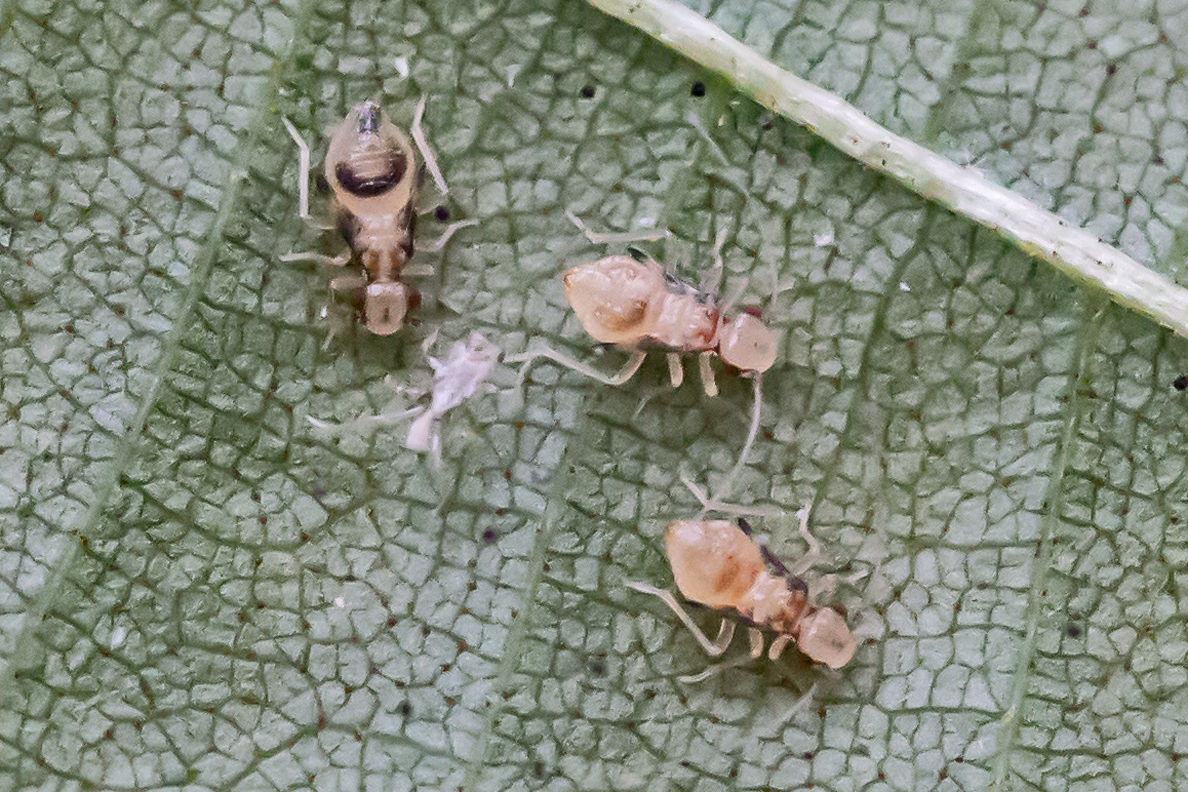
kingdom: Animalia
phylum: Arthropoda
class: Insecta
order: Psocodea
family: Amphipsocidae
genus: Polypsocus
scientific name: Polypsocus corruptus
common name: Corrupt barklouse
